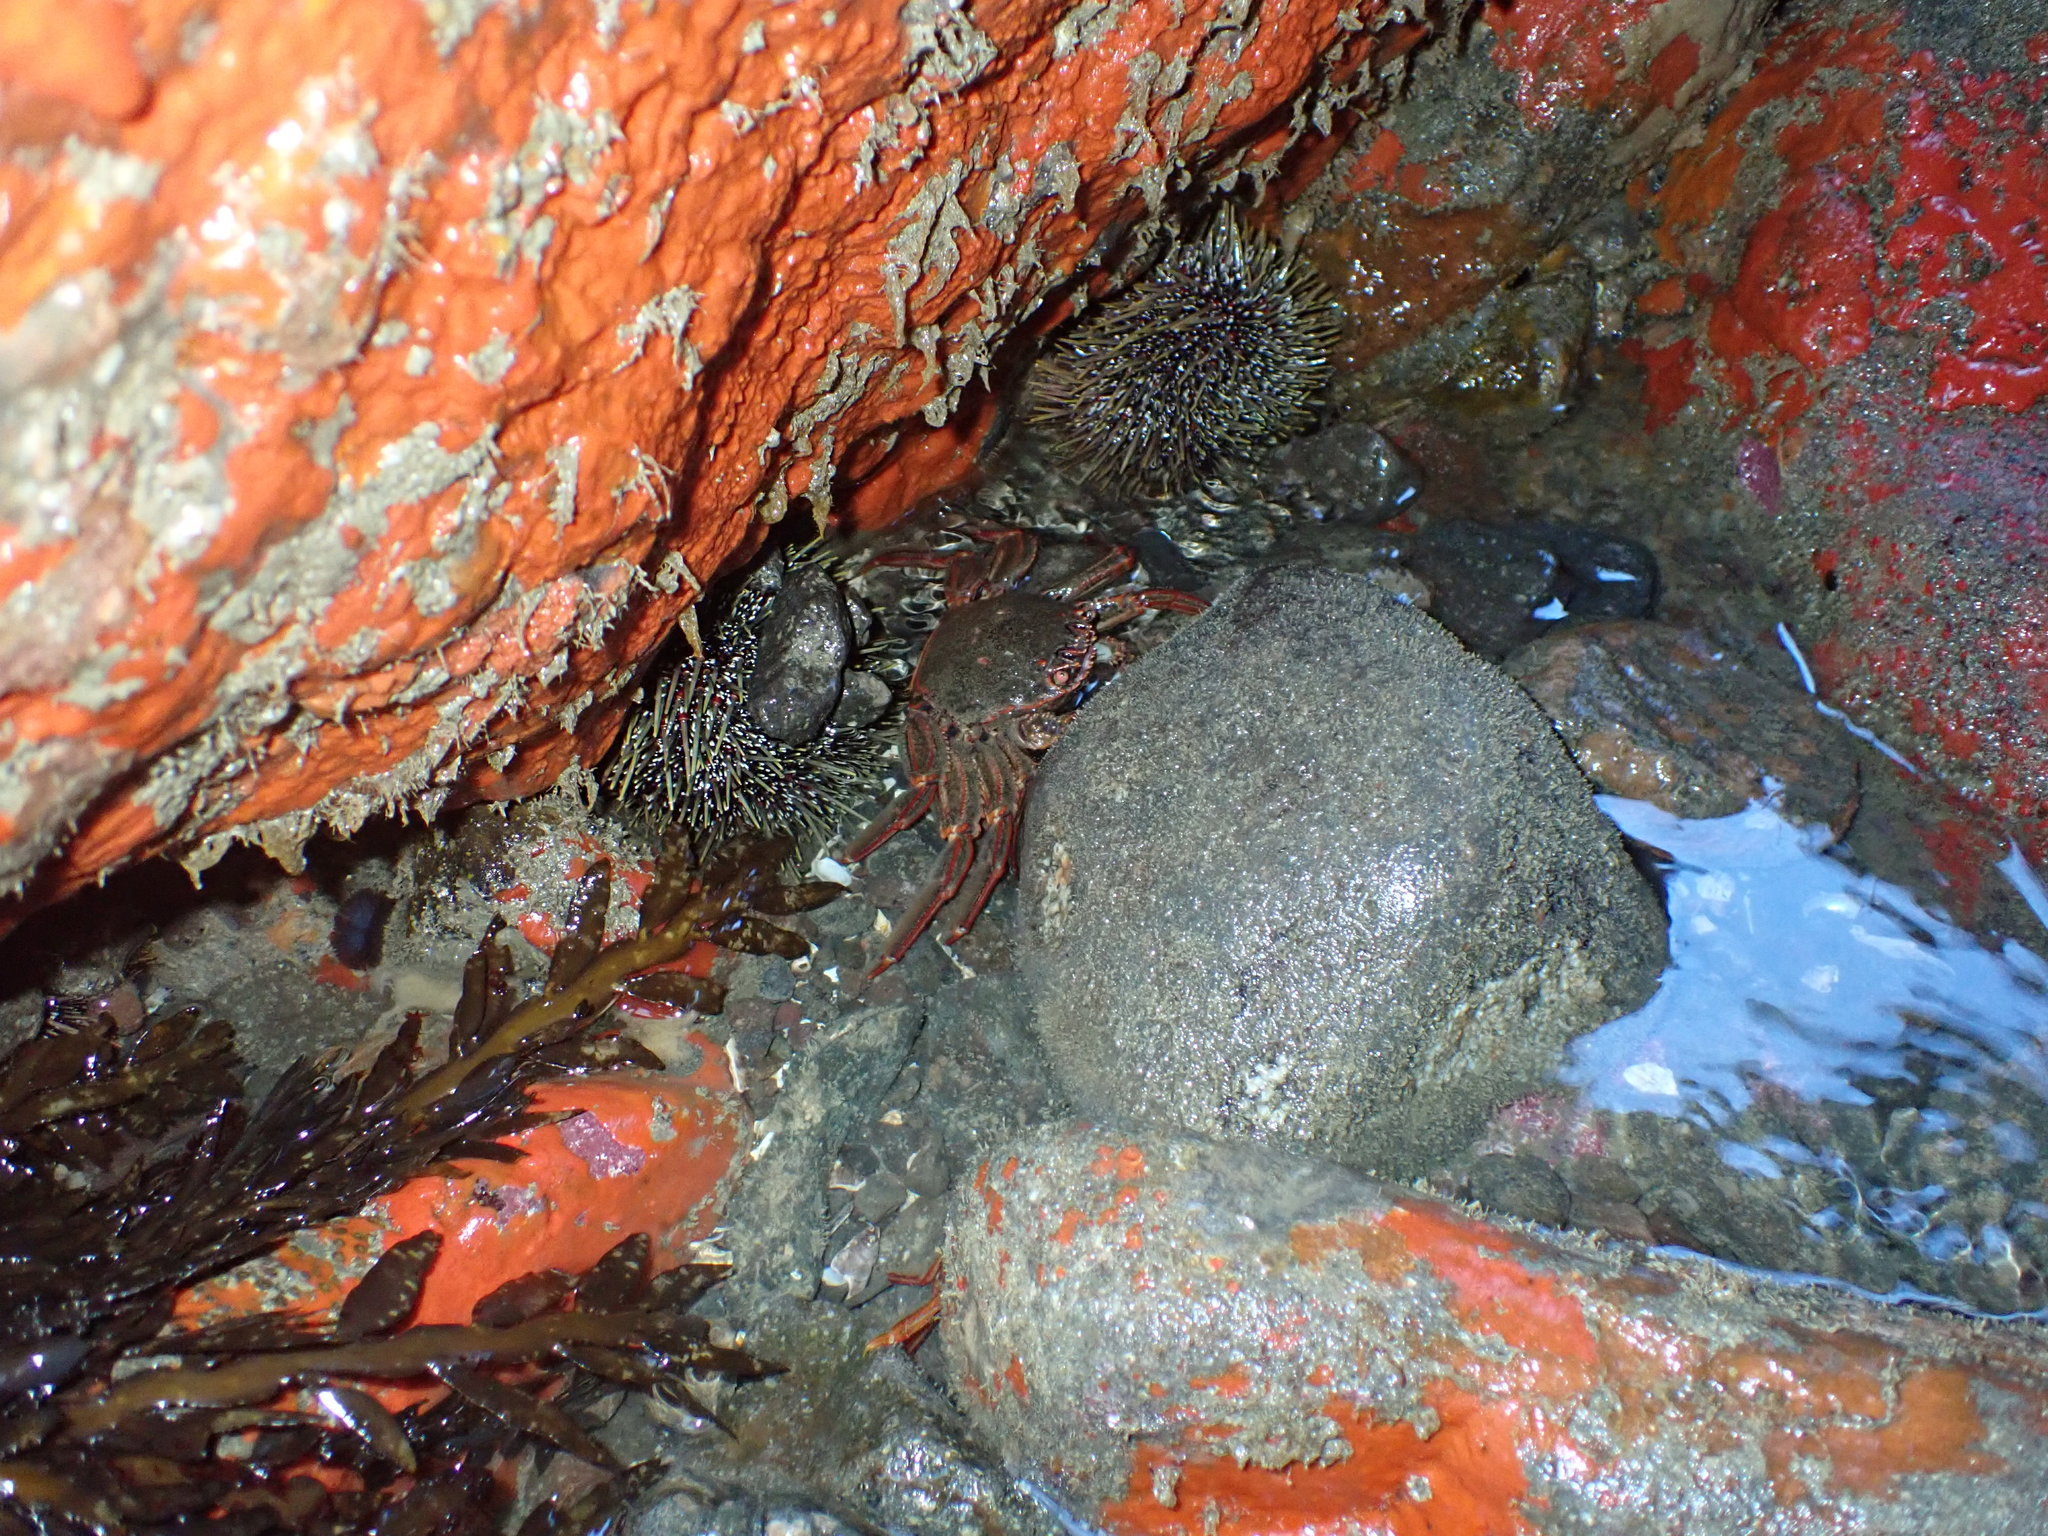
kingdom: Animalia
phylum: Arthropoda
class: Malacostraca
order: Decapoda
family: Plagusiidae
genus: Guinusia
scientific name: Guinusia chabrus
